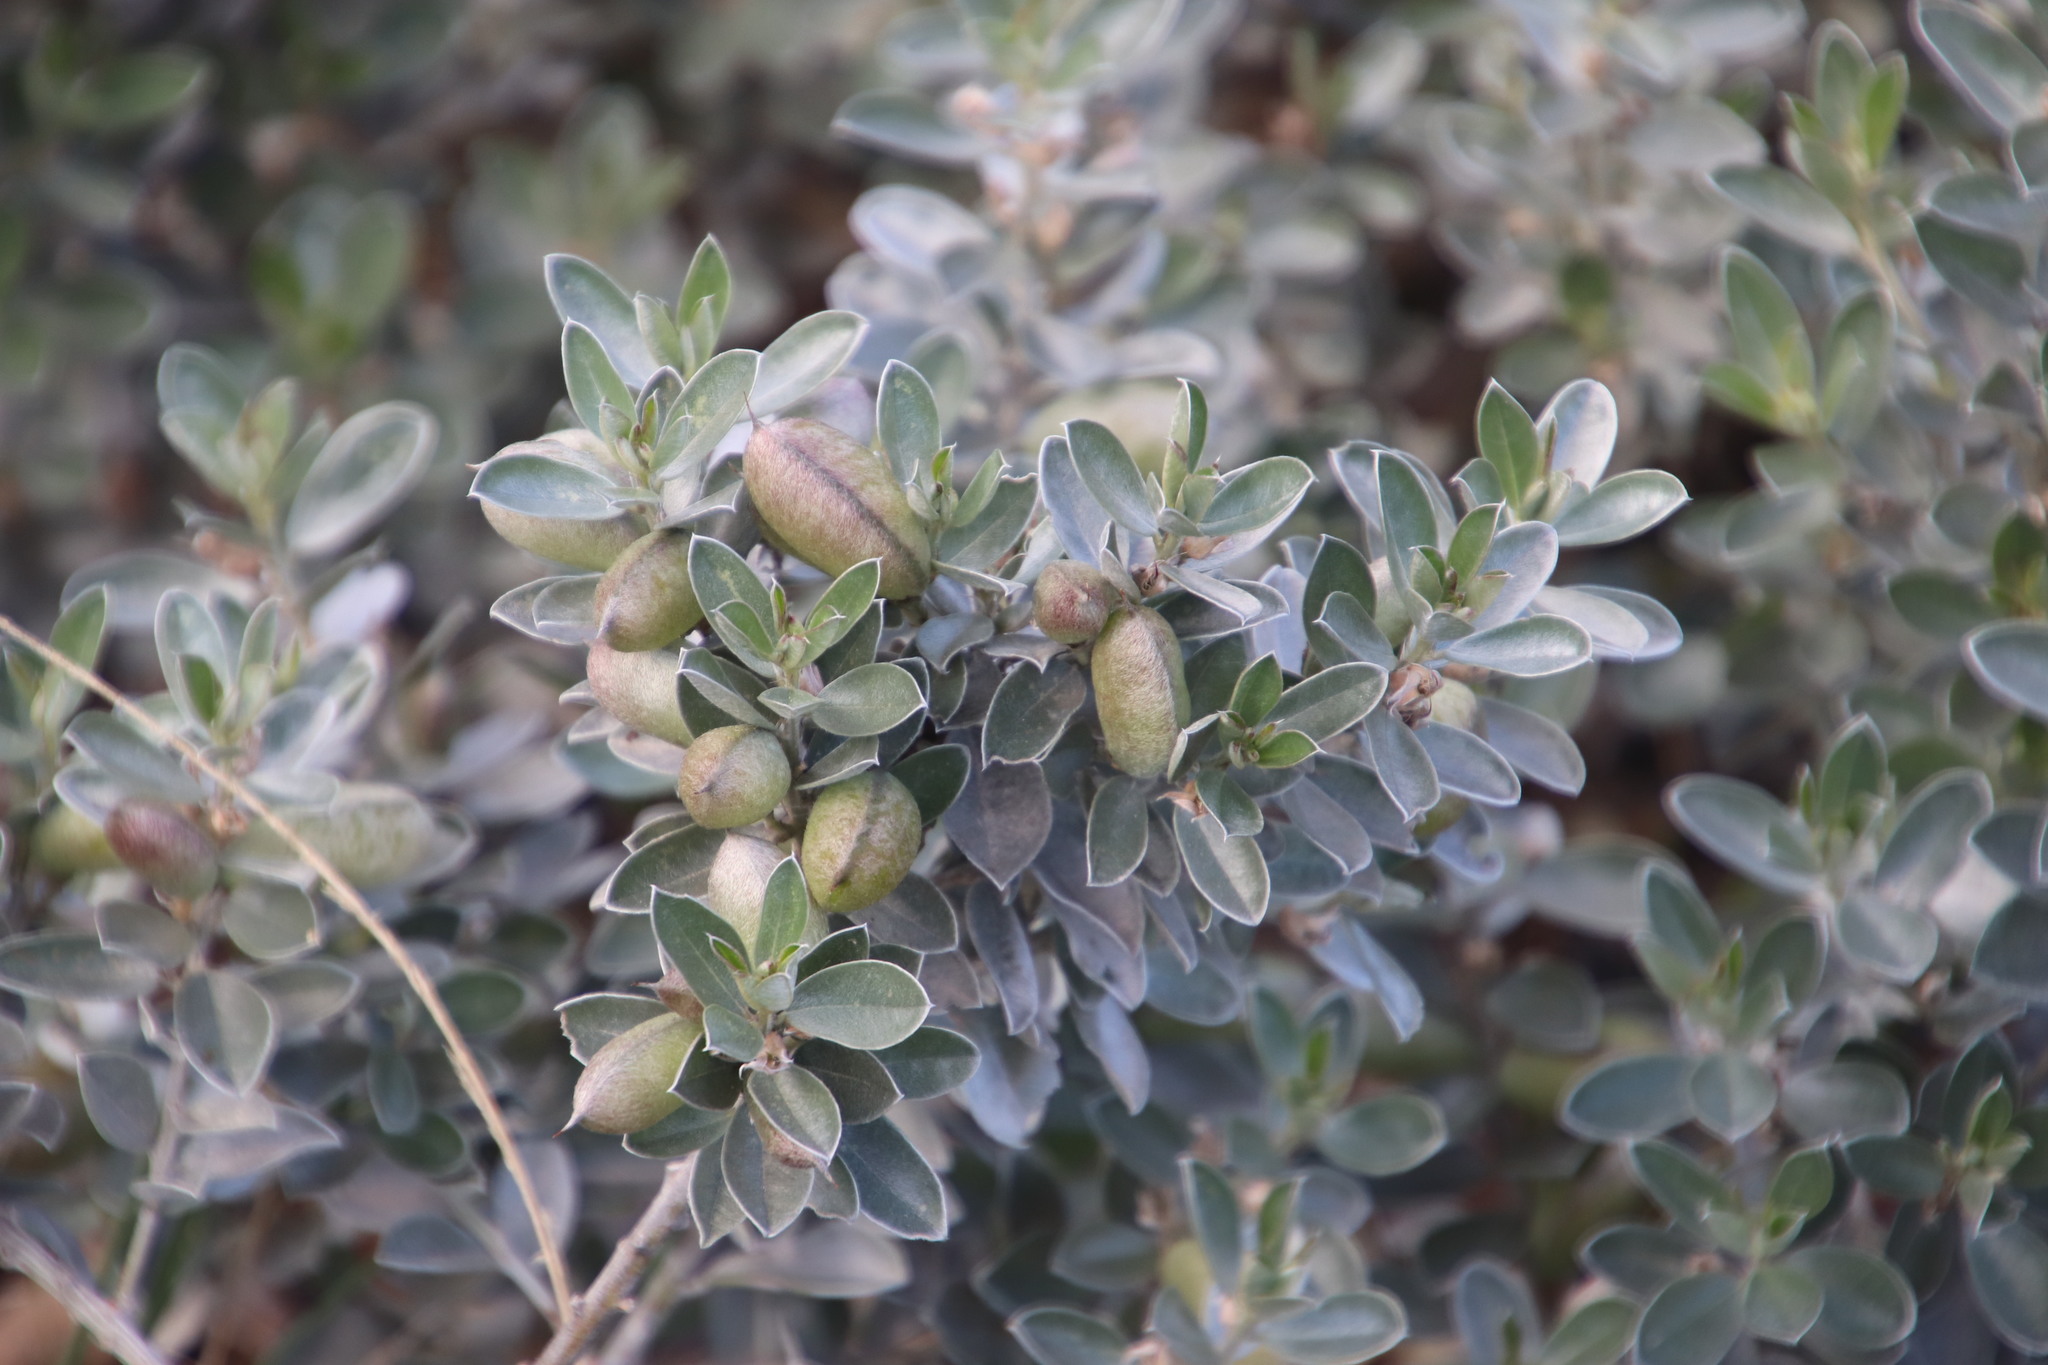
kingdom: Plantae
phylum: Tracheophyta
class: Magnoliopsida
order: Fabales
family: Fabaceae
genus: Podalyria
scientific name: Podalyria sericea
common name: Silver podalyria
